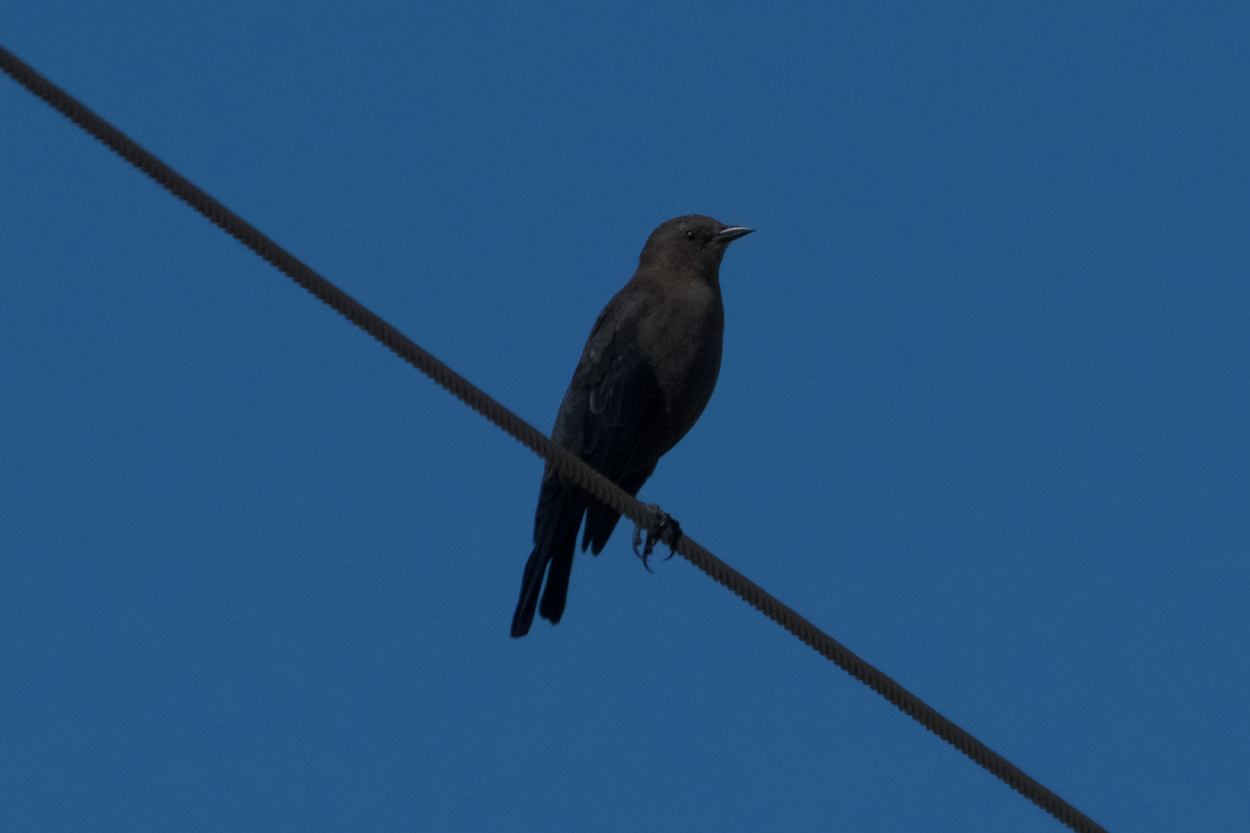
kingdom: Animalia
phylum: Chordata
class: Aves
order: Passeriformes
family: Icteridae
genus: Euphagus
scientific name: Euphagus cyanocephalus
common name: Brewer's blackbird
